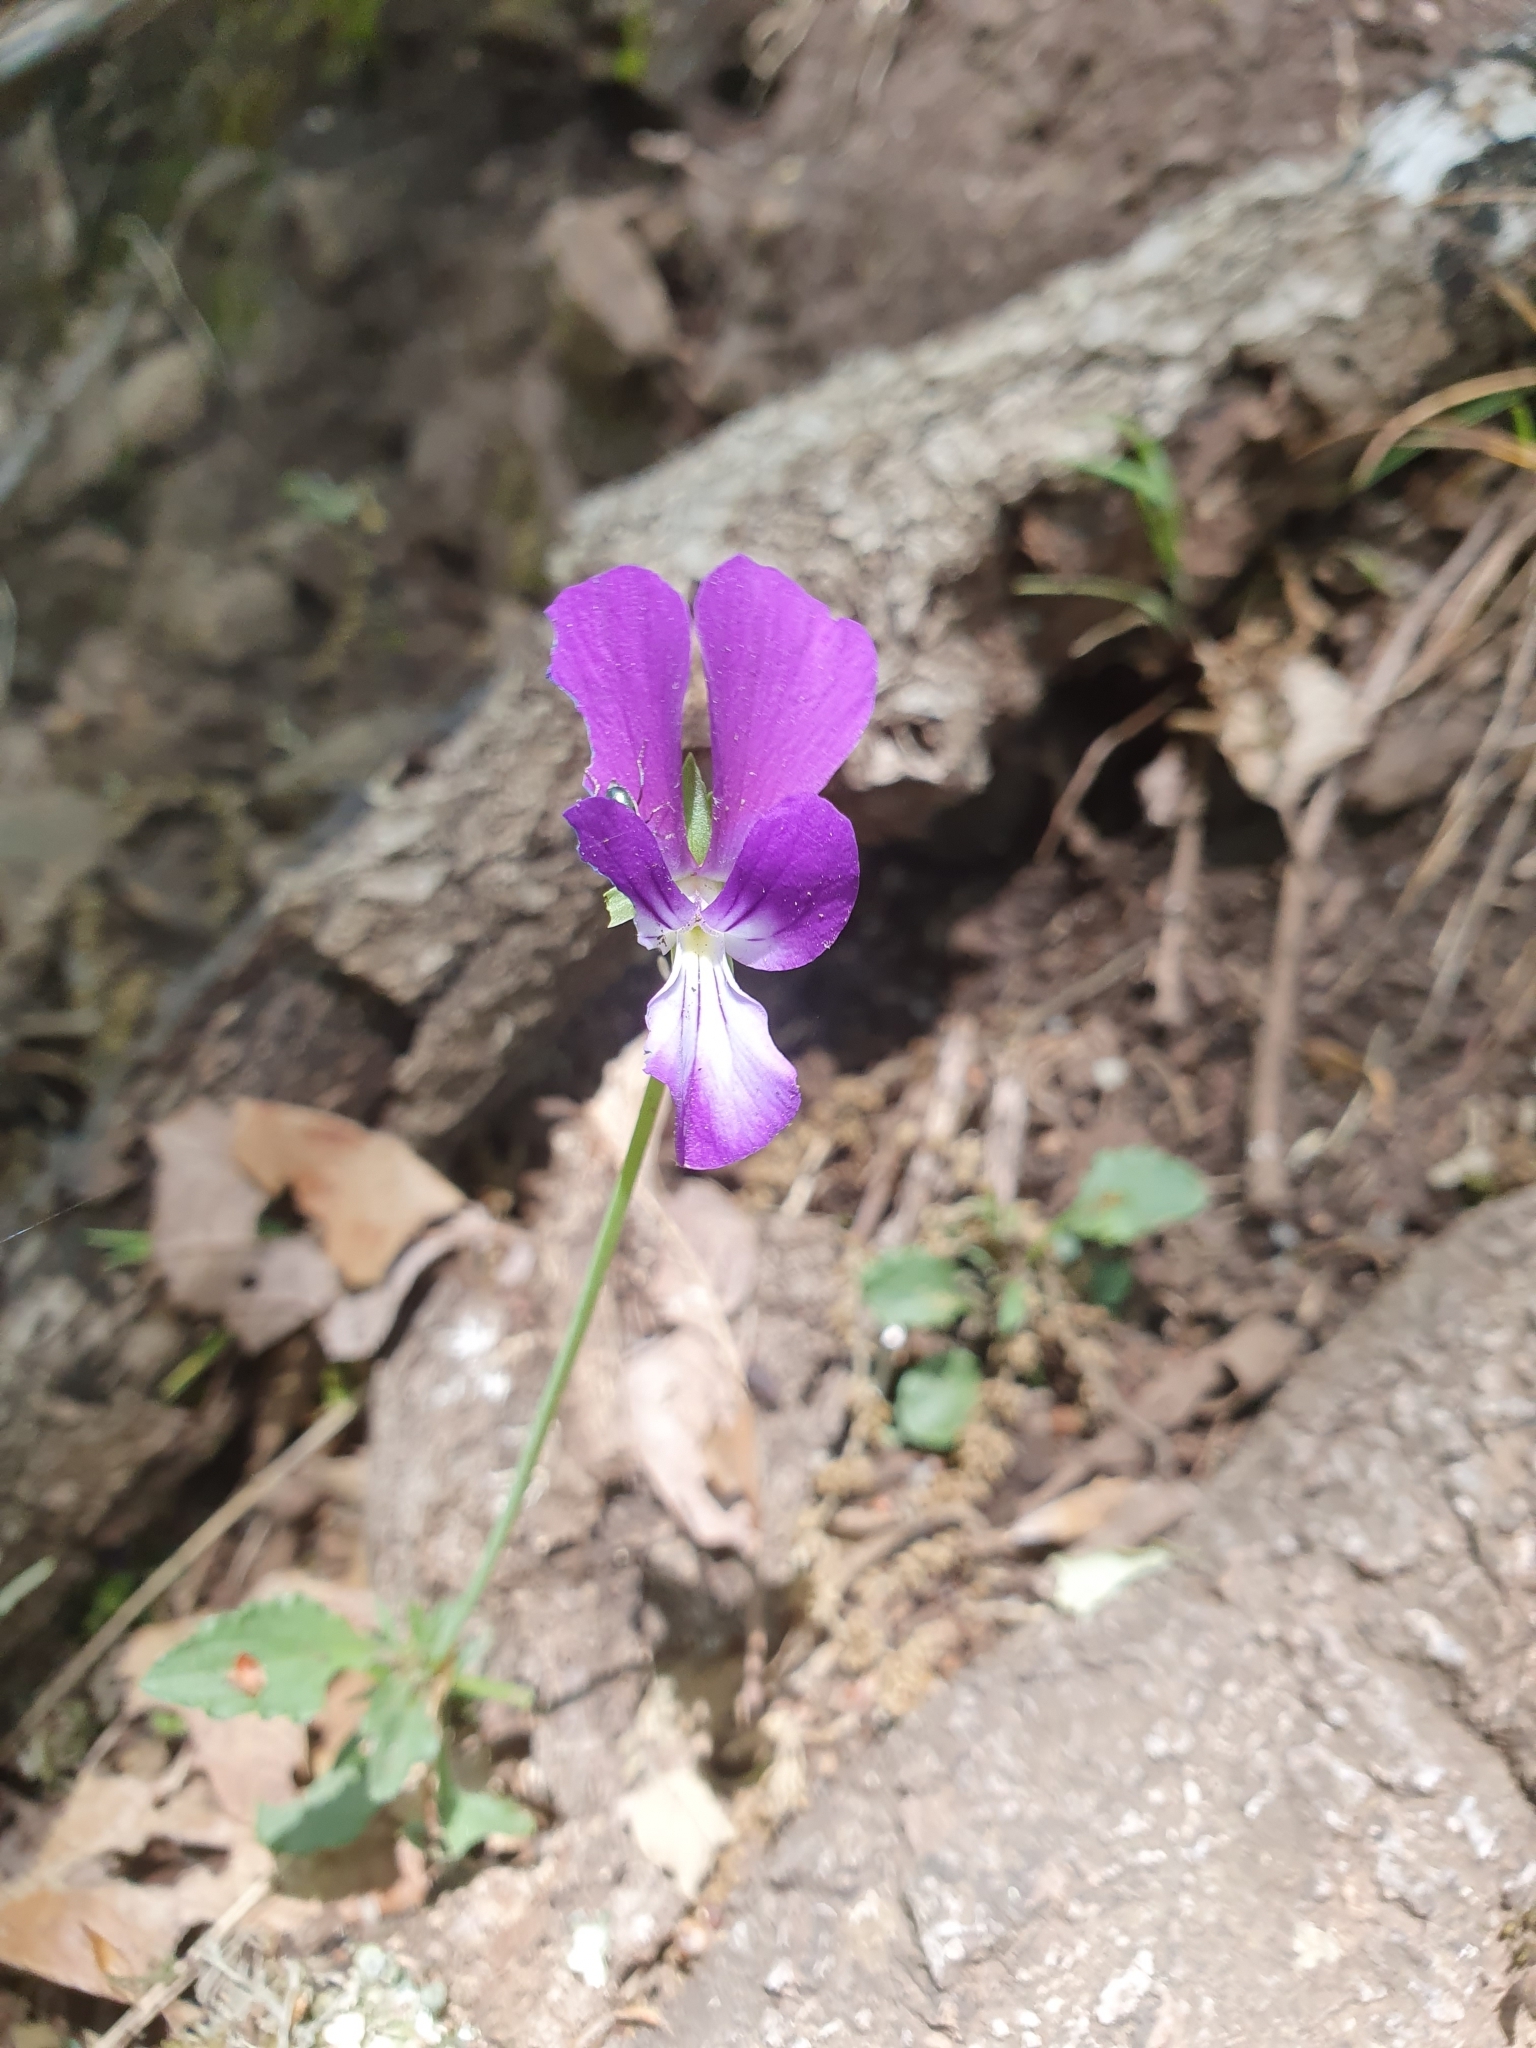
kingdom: Plantae
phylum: Tracheophyta
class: Magnoliopsida
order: Malpighiales
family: Violaceae
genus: Viola
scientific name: Viola munbyana
